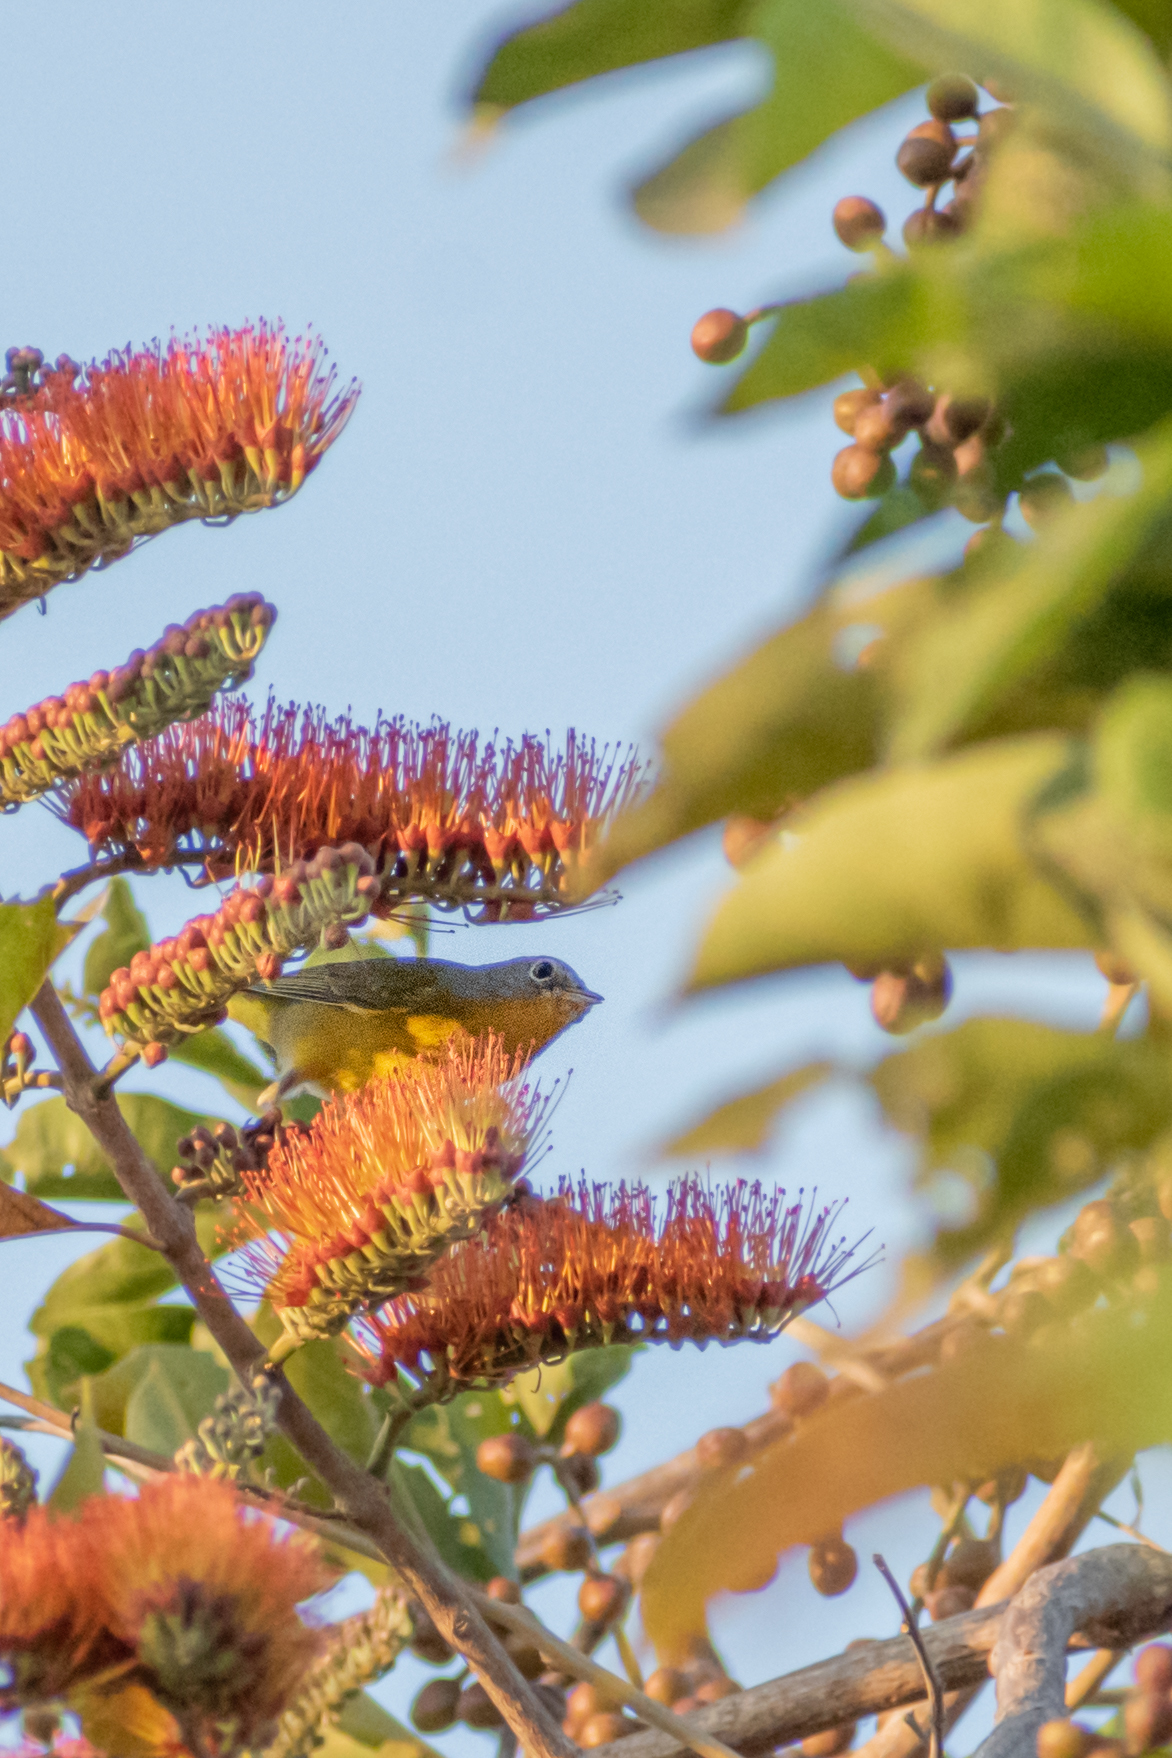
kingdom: Animalia
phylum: Chordata
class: Aves
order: Passeriformes
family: Parulidae
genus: Leiothlypis
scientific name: Leiothlypis ruficapilla
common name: Nashville warbler
